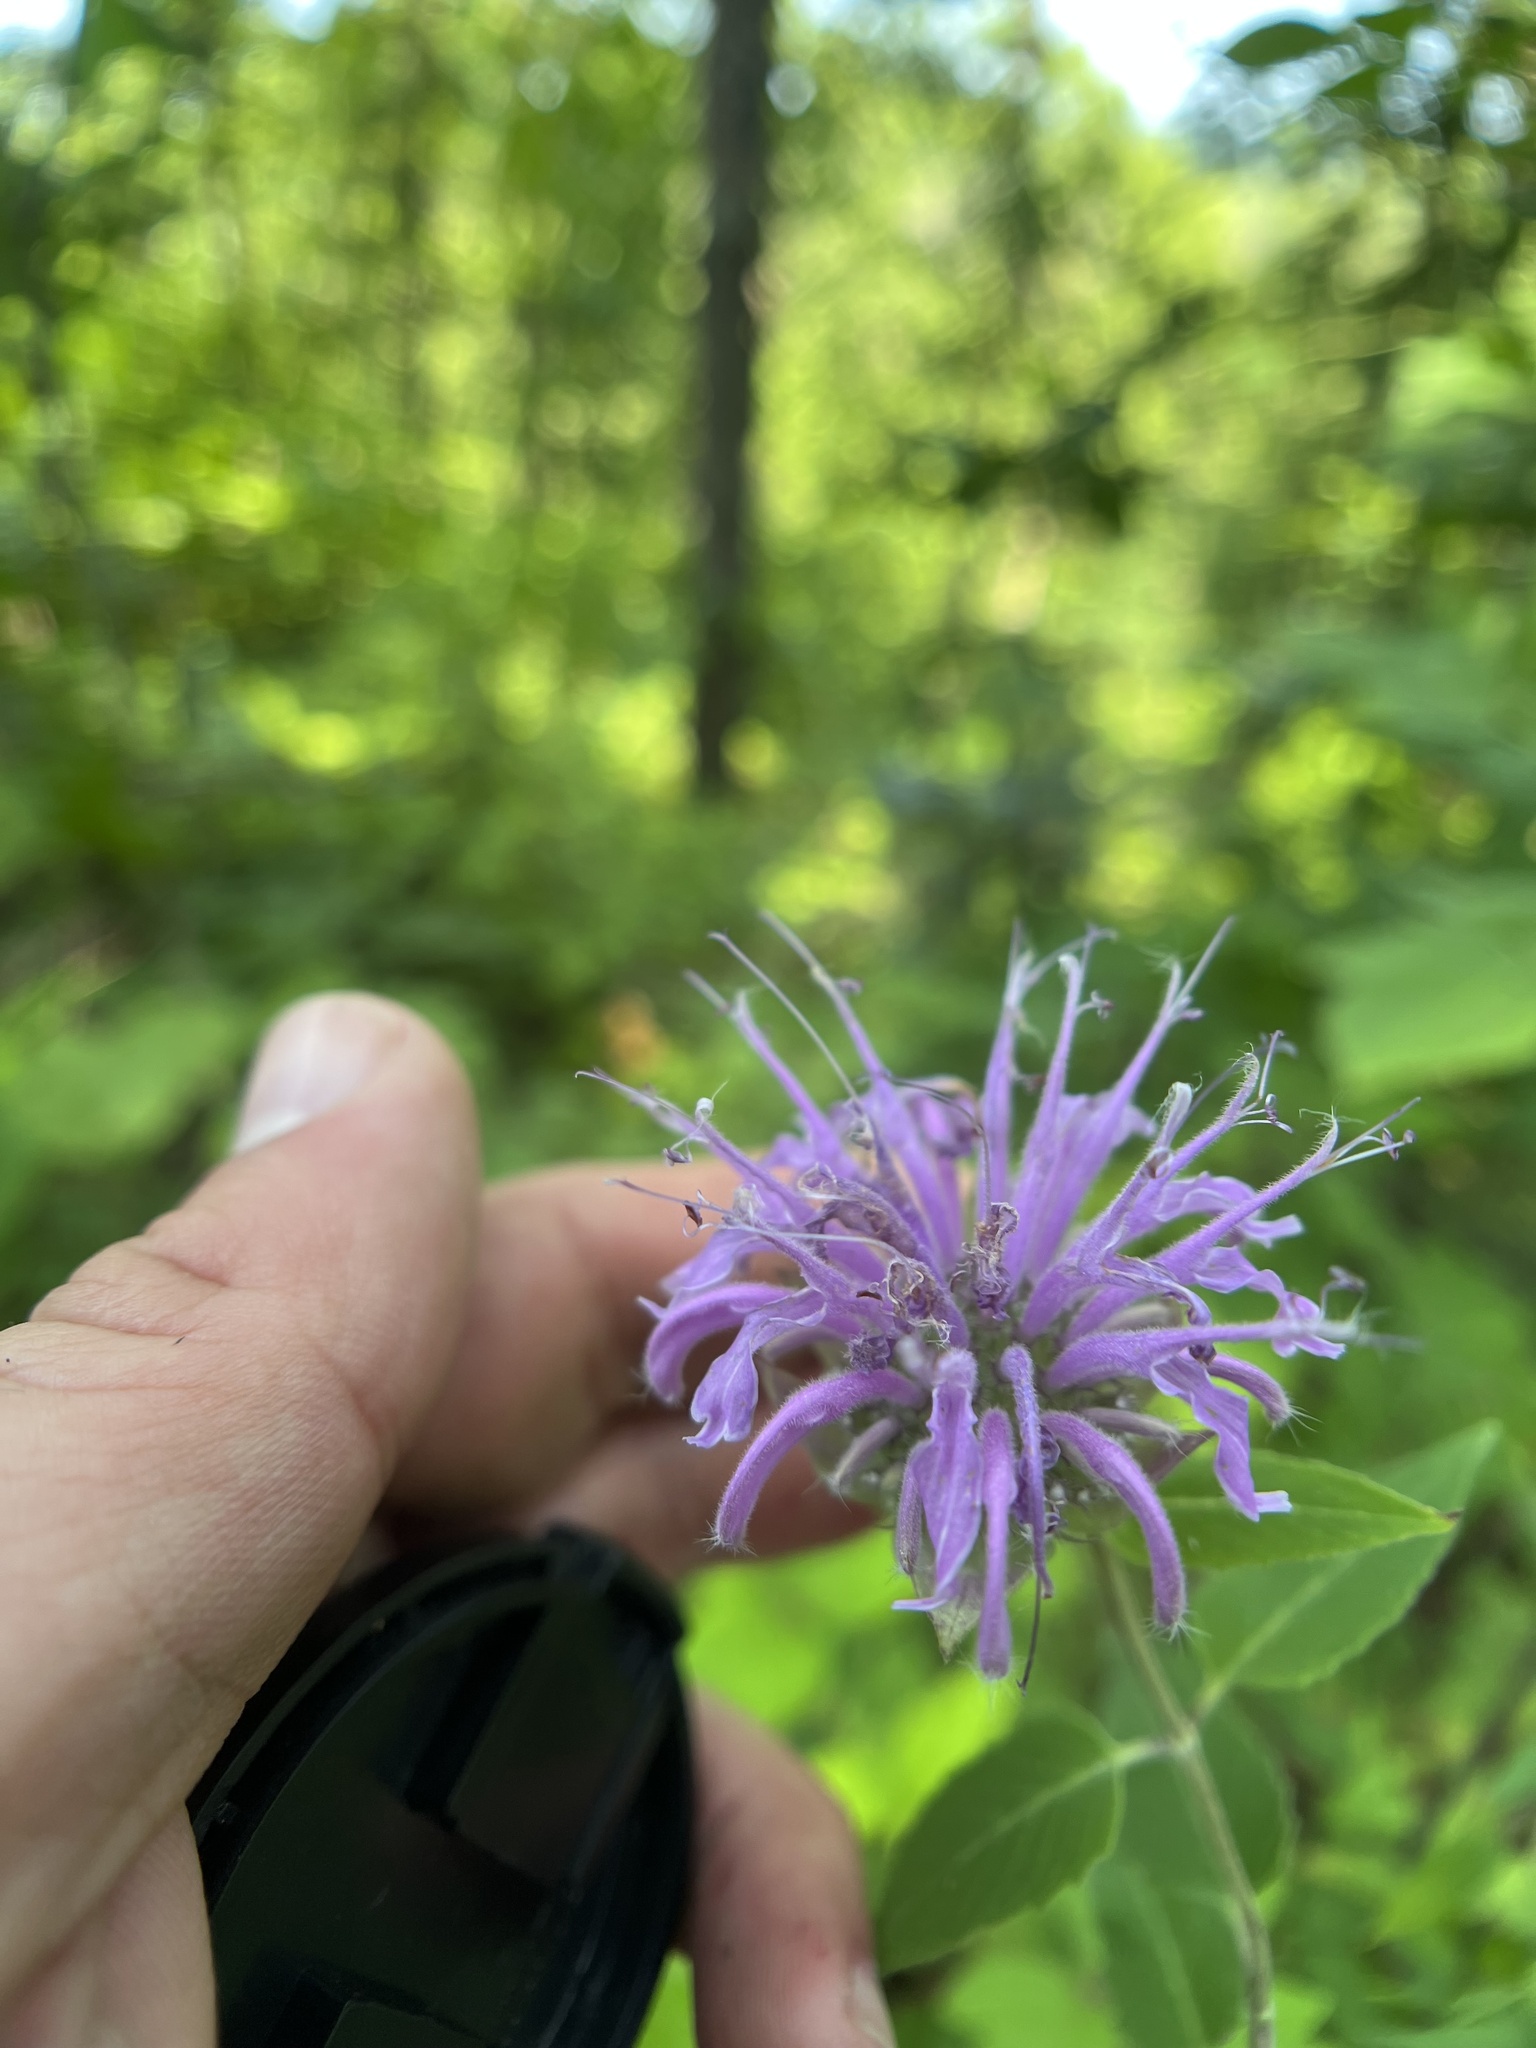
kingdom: Plantae
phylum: Tracheophyta
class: Magnoliopsida
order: Lamiales
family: Lamiaceae
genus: Monarda
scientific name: Monarda fistulosa
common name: Purple beebalm
